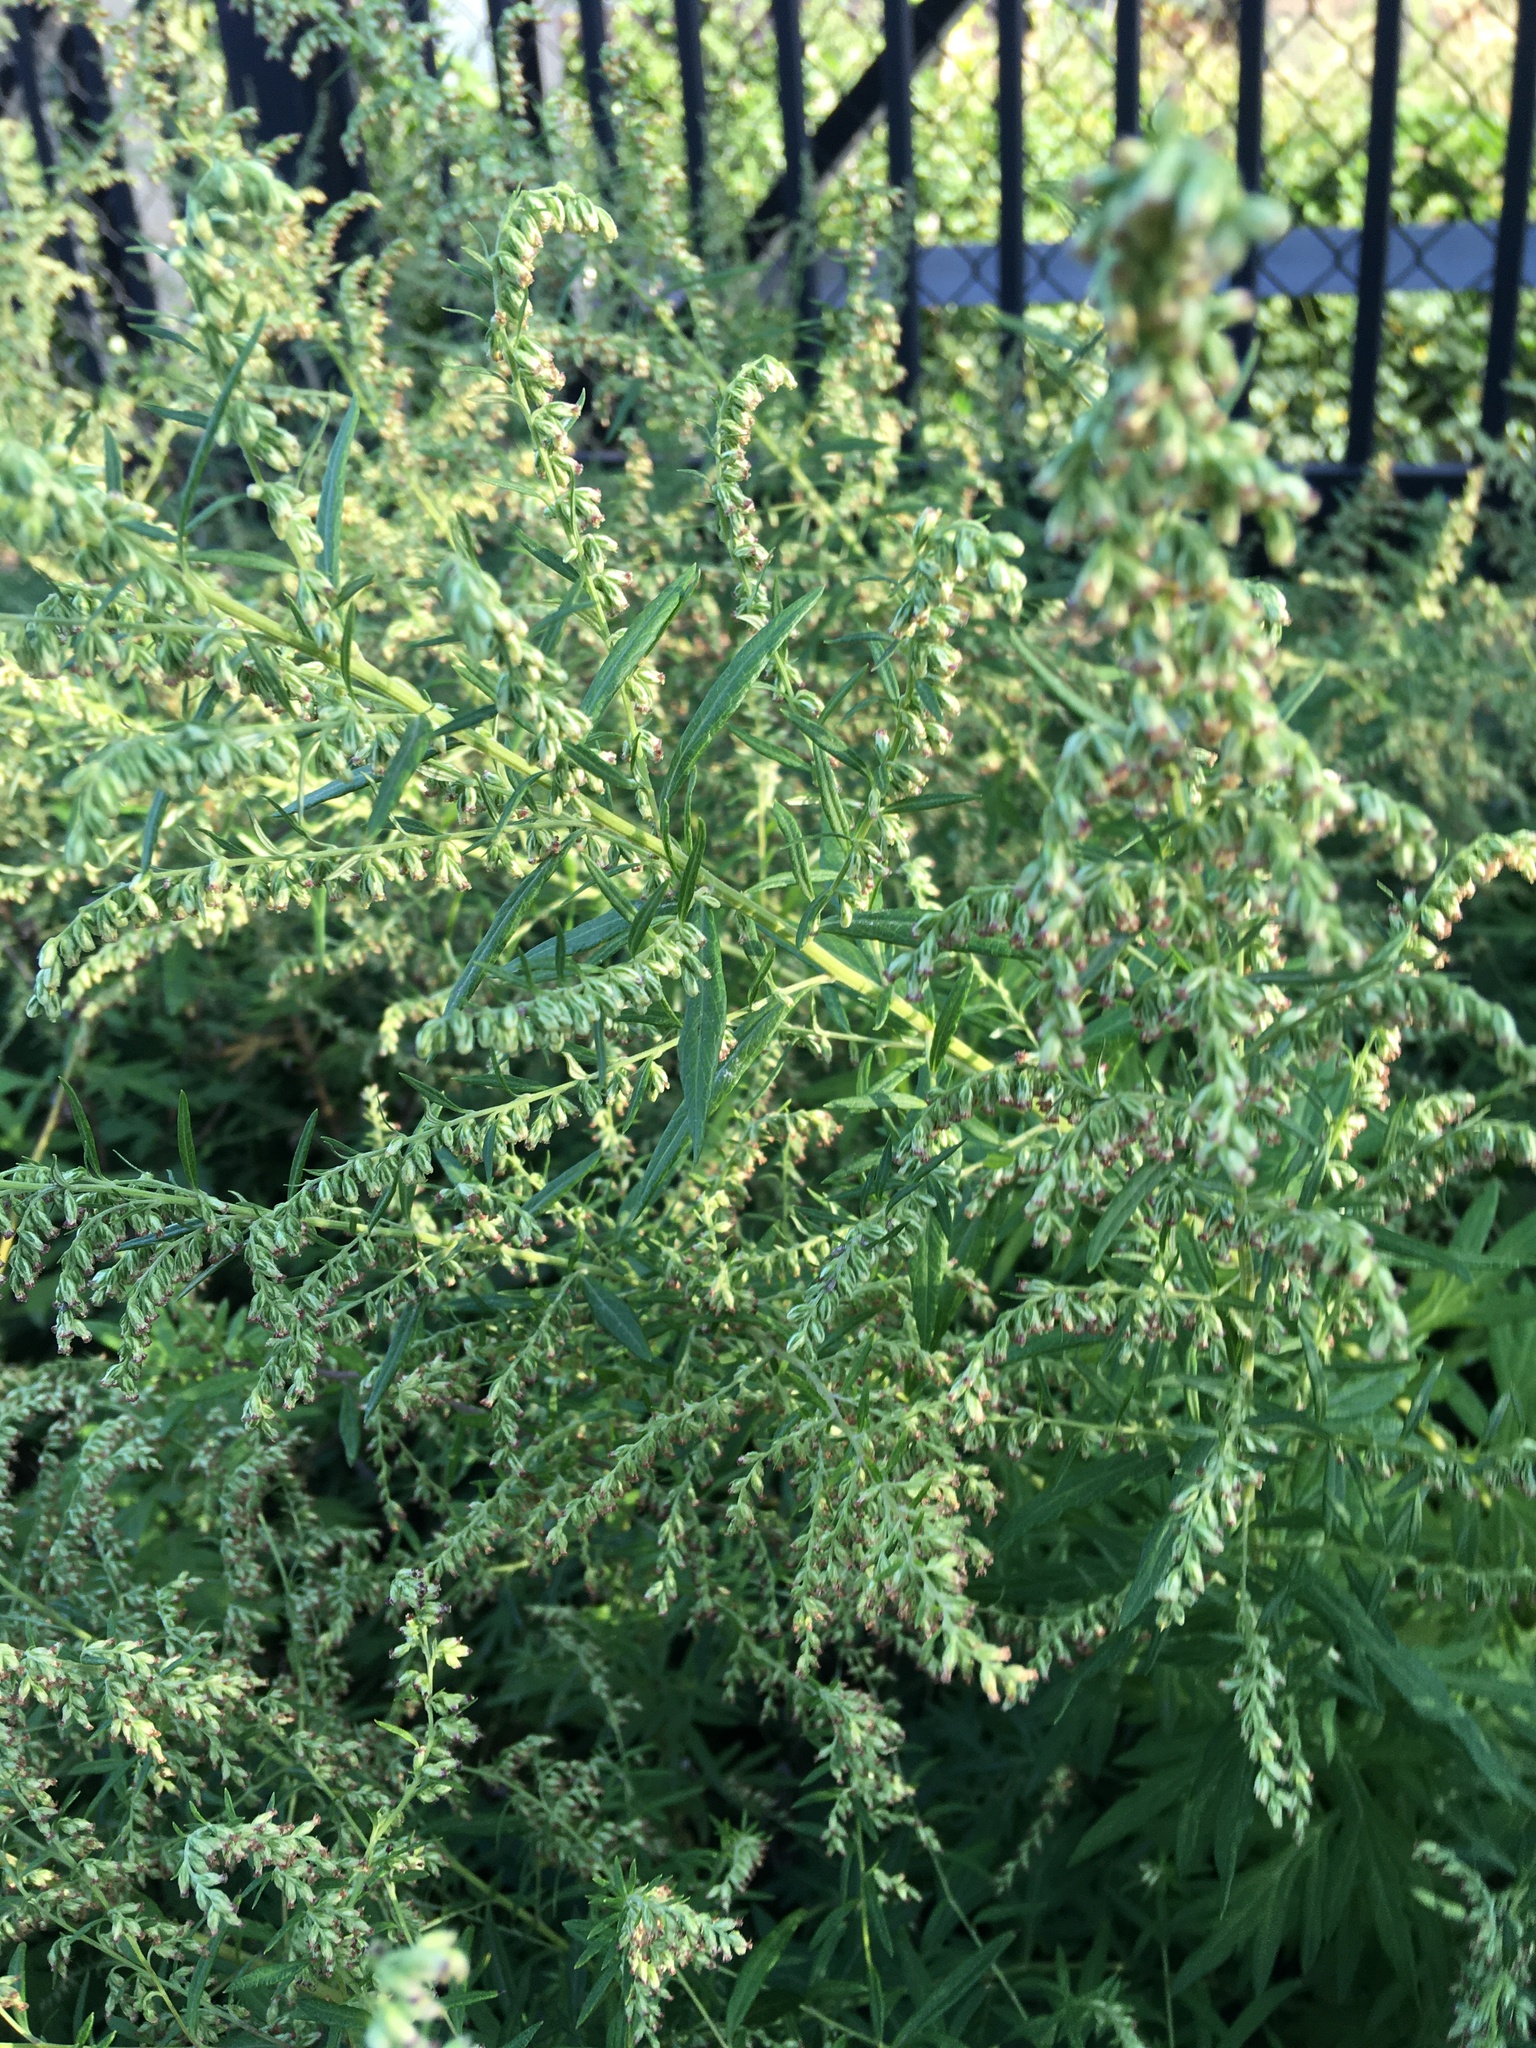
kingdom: Plantae
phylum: Tracheophyta
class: Magnoliopsida
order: Asterales
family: Asteraceae
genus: Artemisia
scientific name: Artemisia vulgaris
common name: Mugwort
